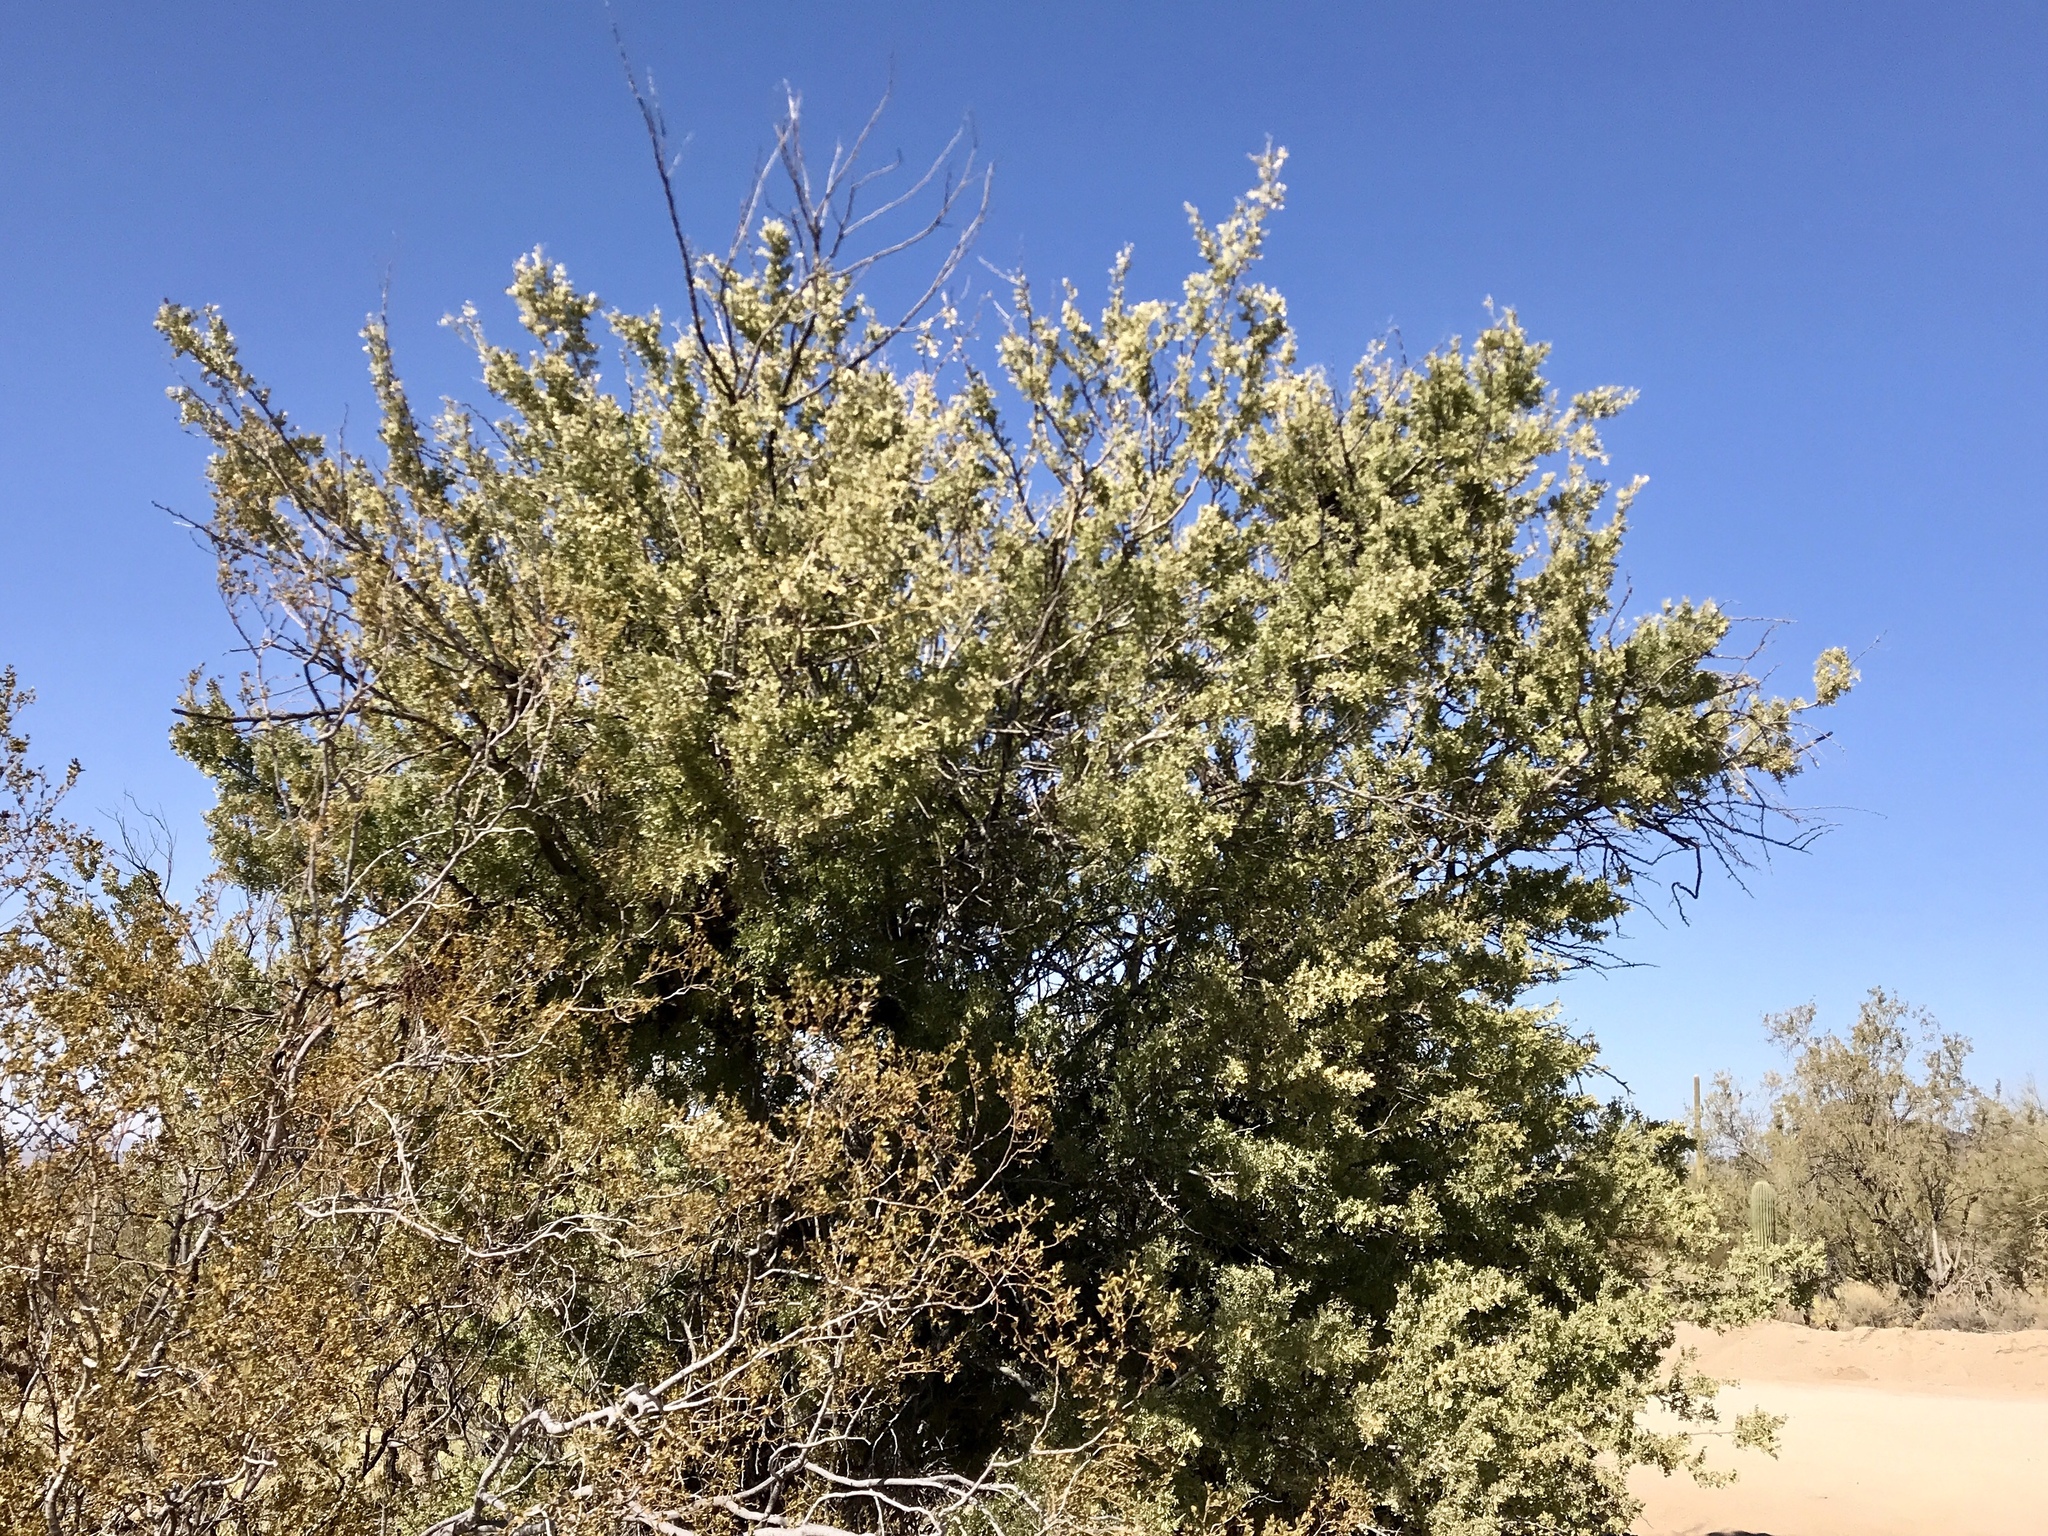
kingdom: Plantae
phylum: Tracheophyta
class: Magnoliopsida
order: Fabales
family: Fabaceae
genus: Olneya
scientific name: Olneya tesota
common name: Desert ironwood
